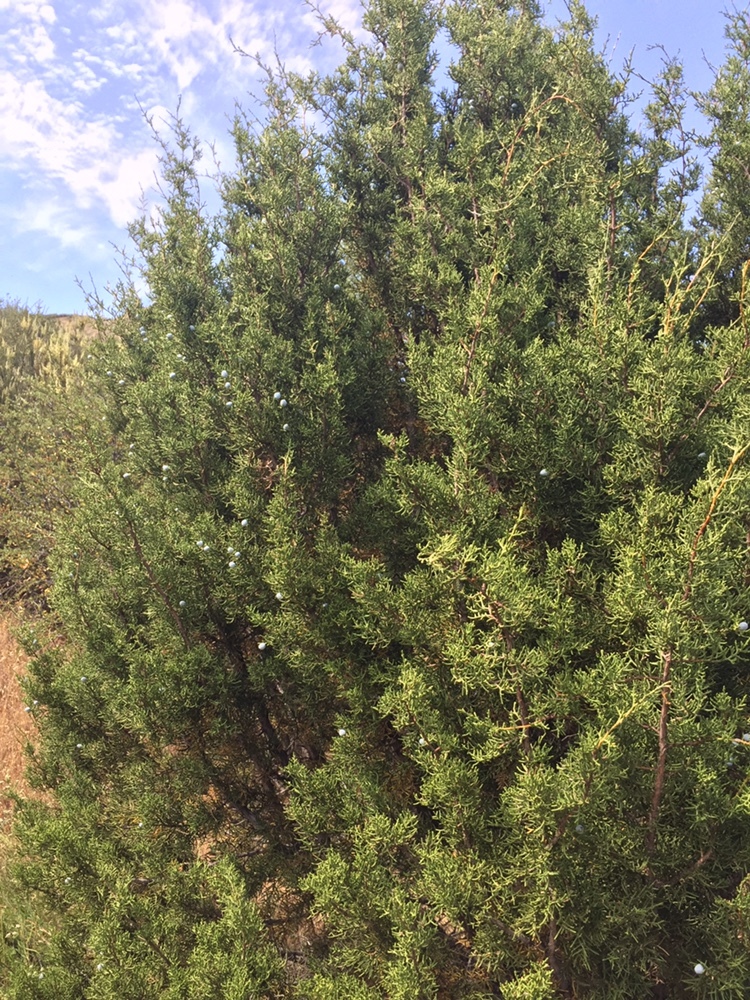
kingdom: Plantae
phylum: Tracheophyta
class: Pinopsida
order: Pinales
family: Cupressaceae
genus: Juniperus
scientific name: Juniperus californica
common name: California juniper
